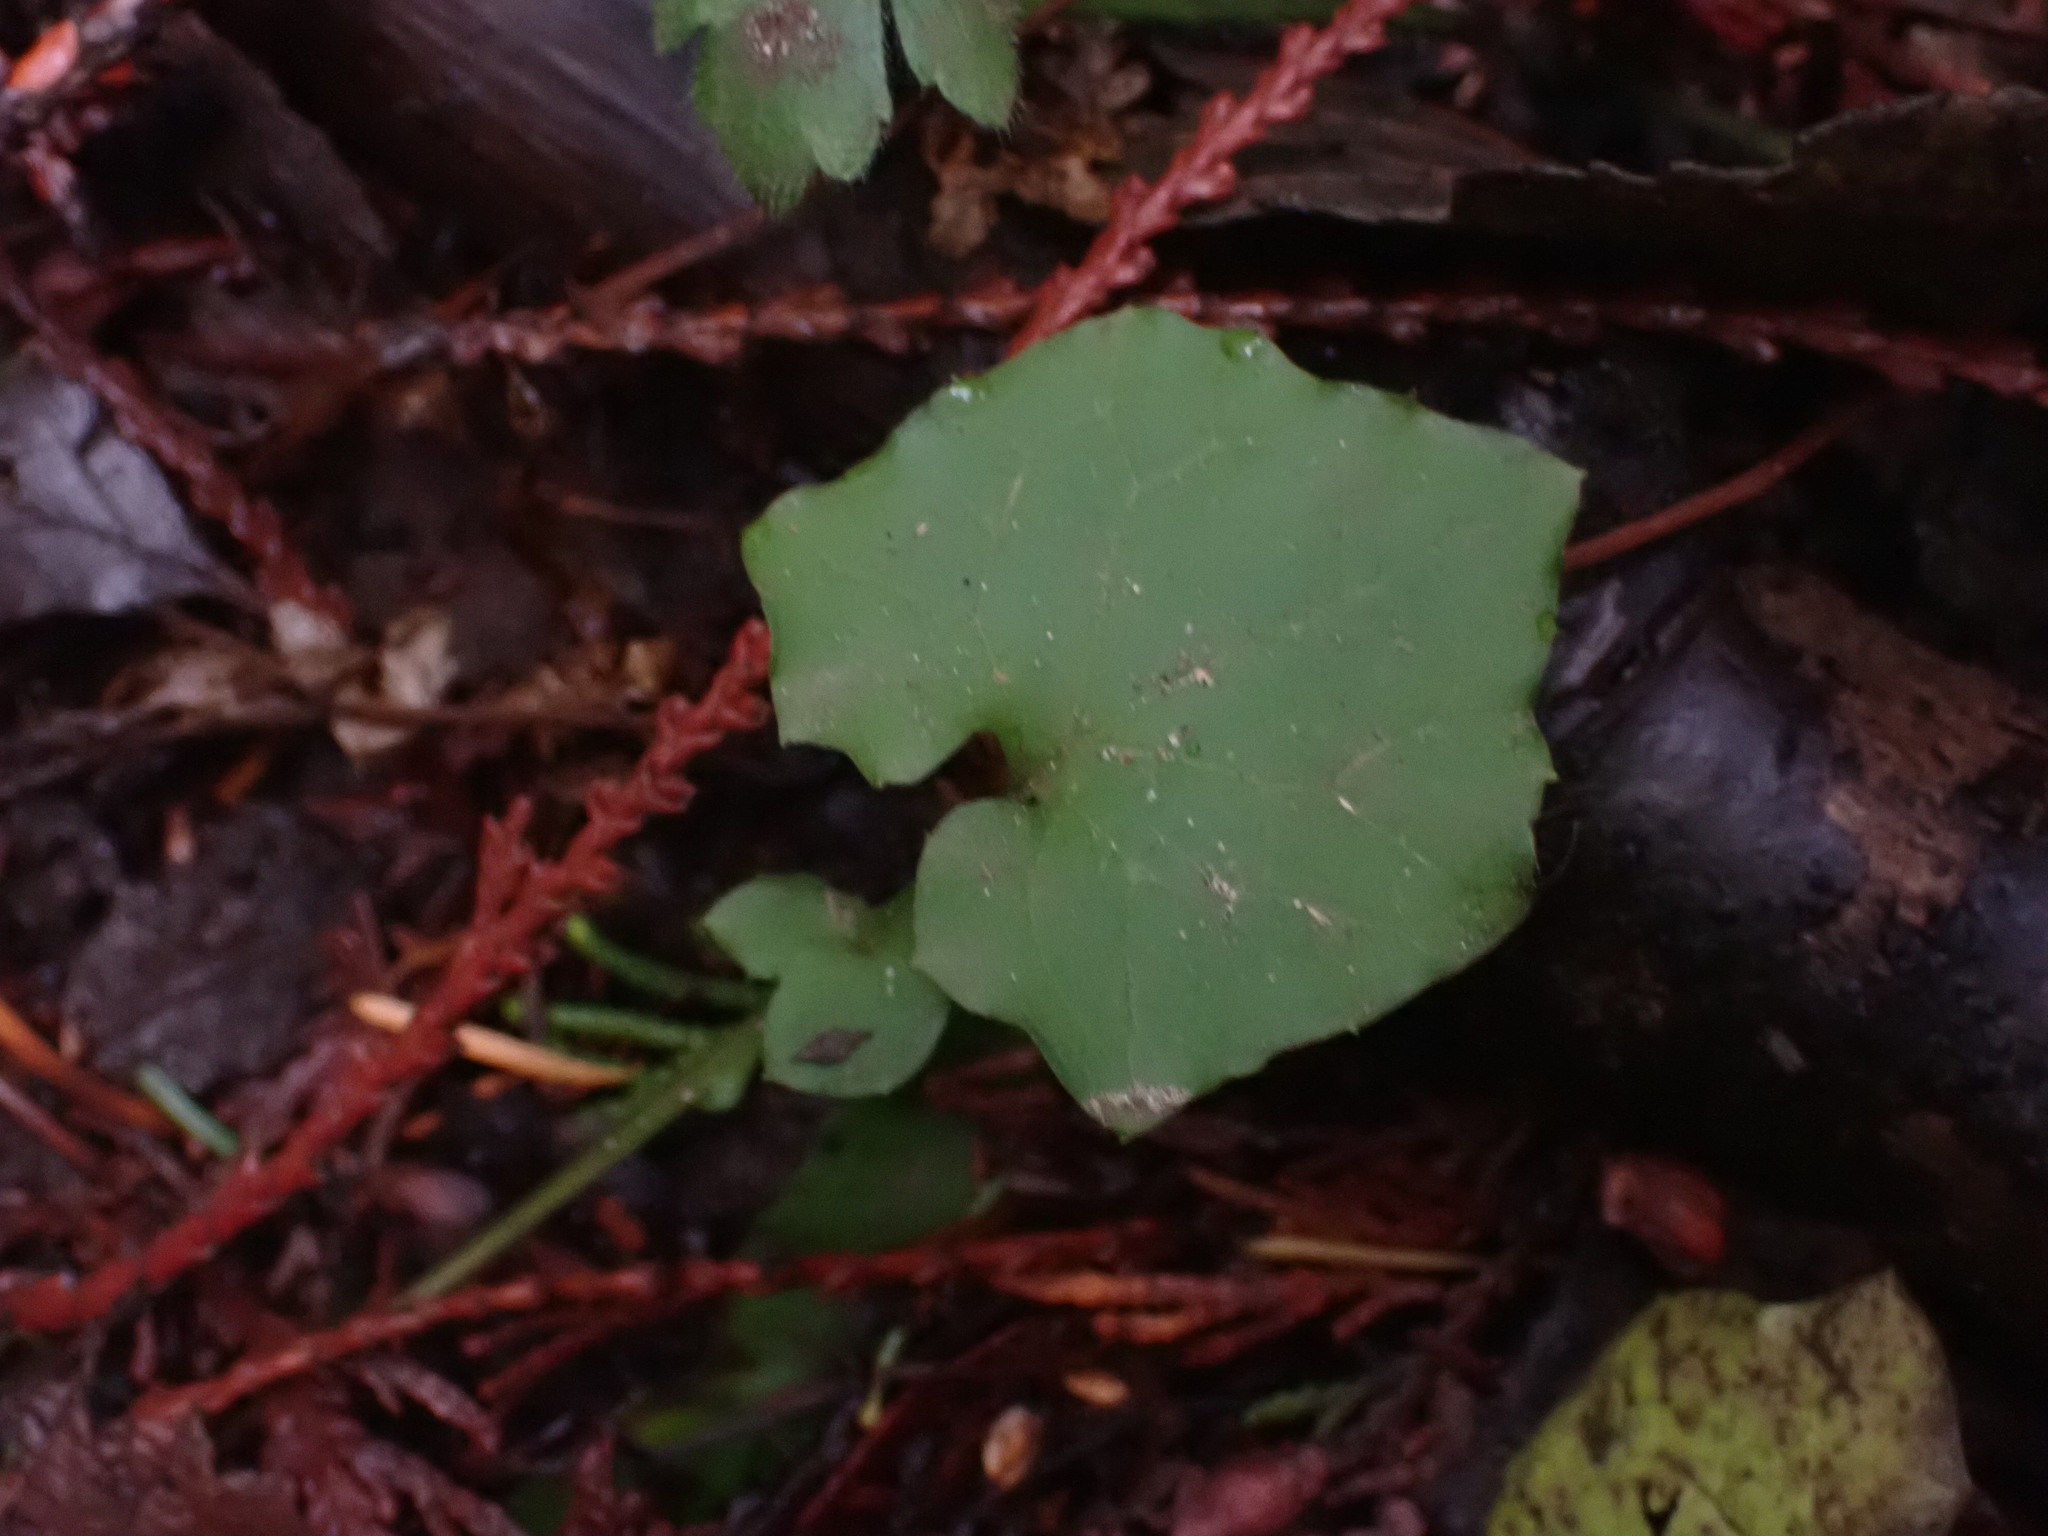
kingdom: Plantae
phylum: Tracheophyta
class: Magnoliopsida
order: Asterales
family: Asteraceae
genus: Mycelis
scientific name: Mycelis muralis
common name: Wall lettuce
